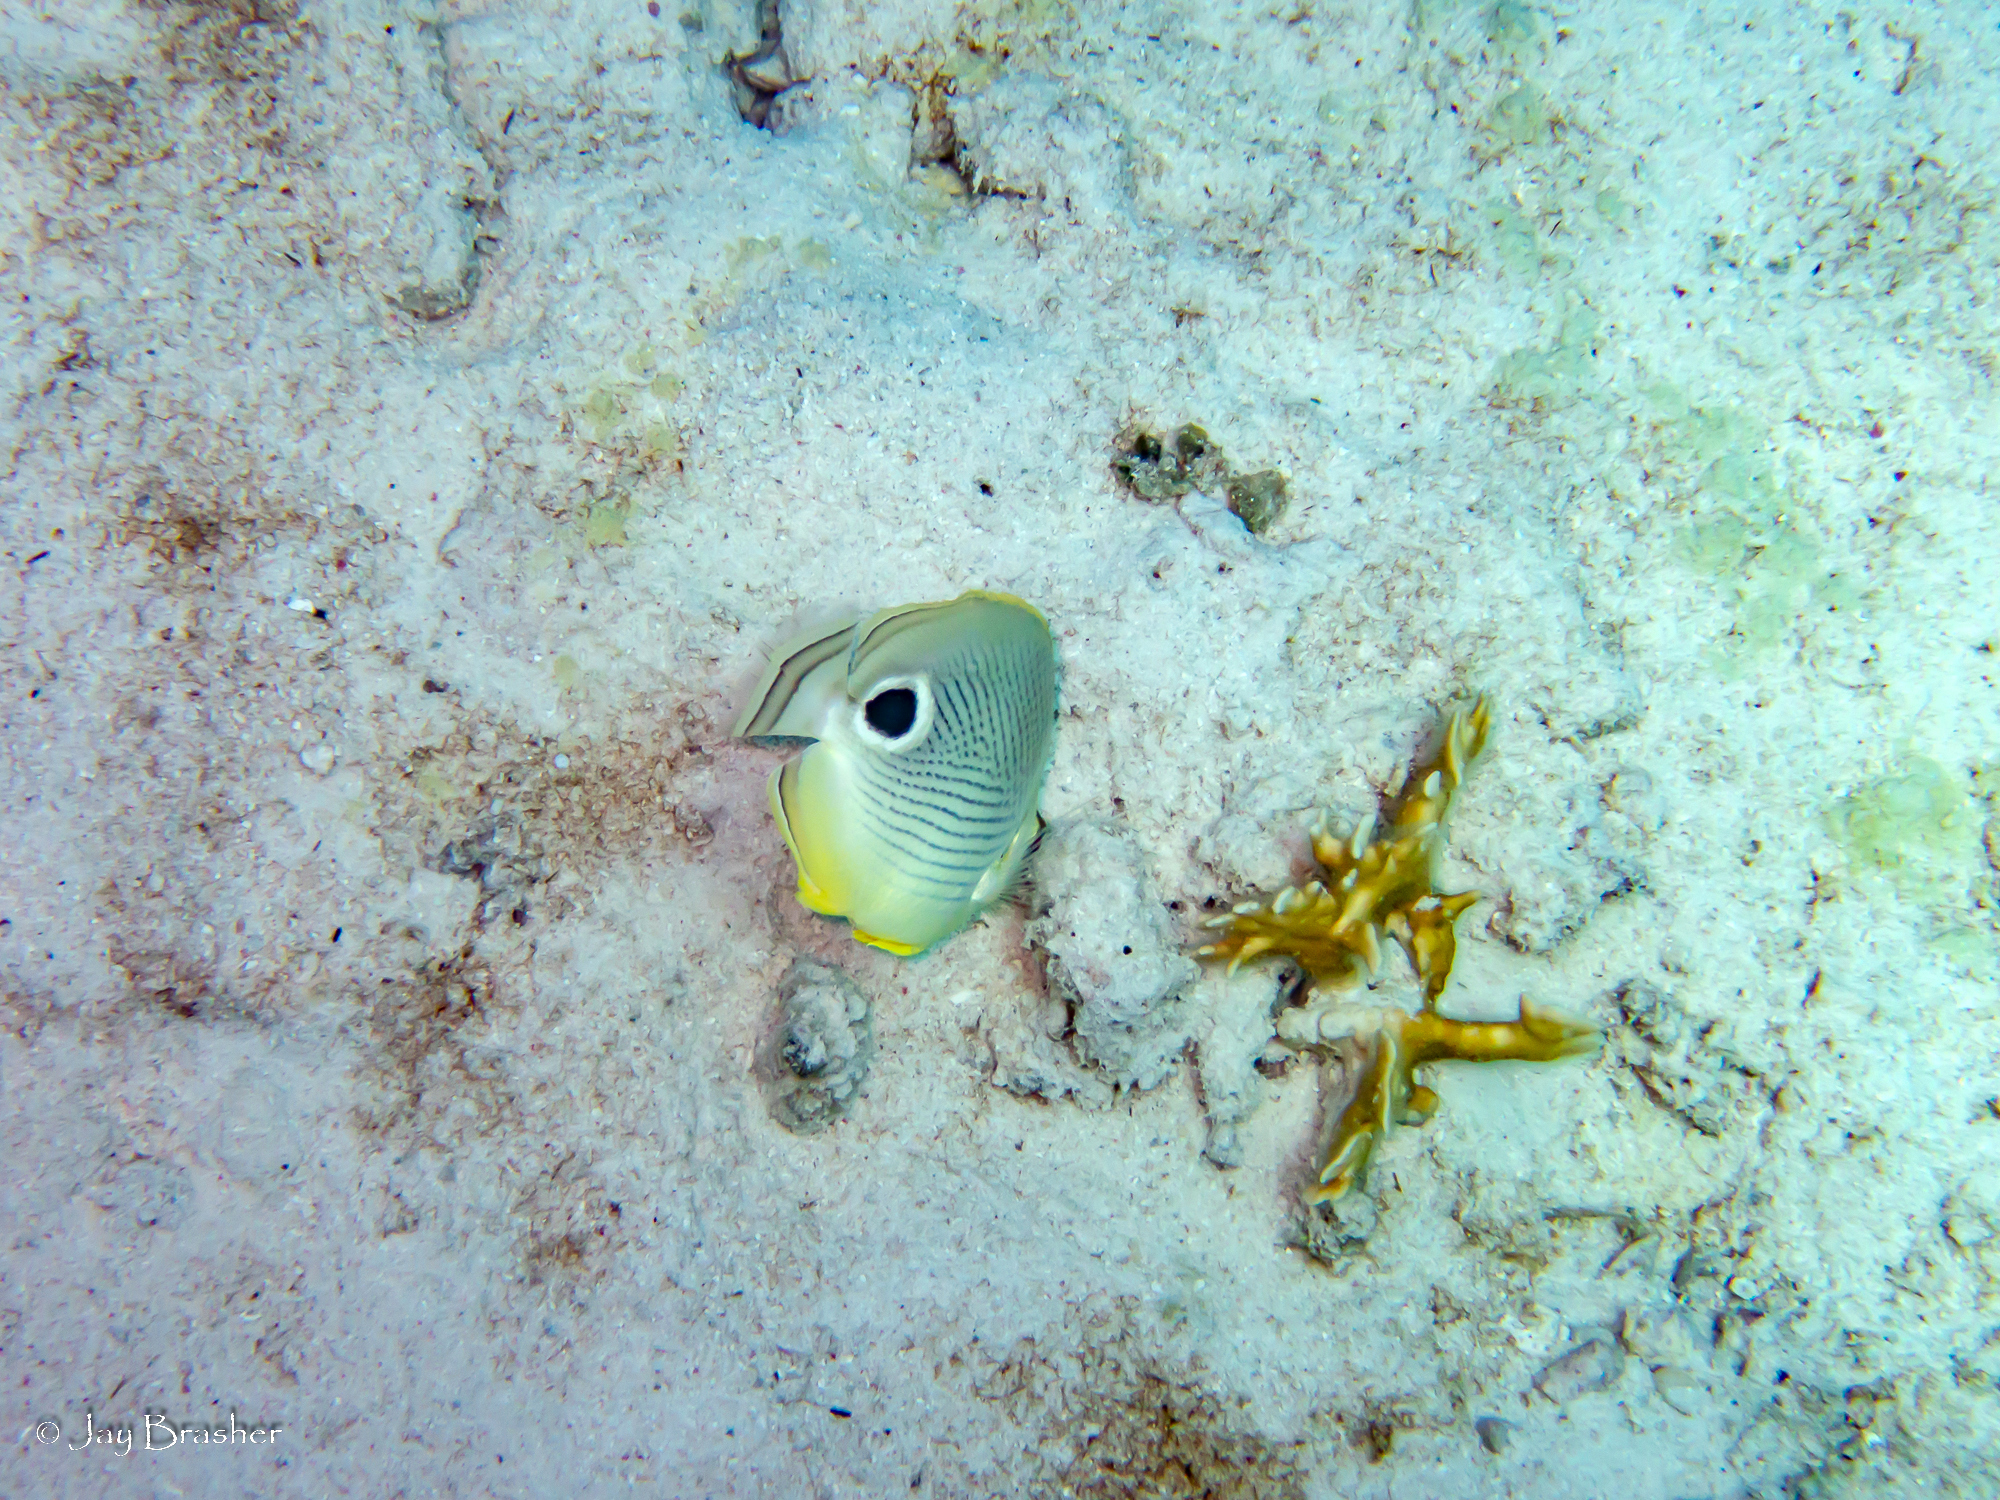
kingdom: Animalia
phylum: Chordata
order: Perciformes
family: Chaetodontidae
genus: Chaetodon
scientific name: Chaetodon capistratus
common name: Kete
